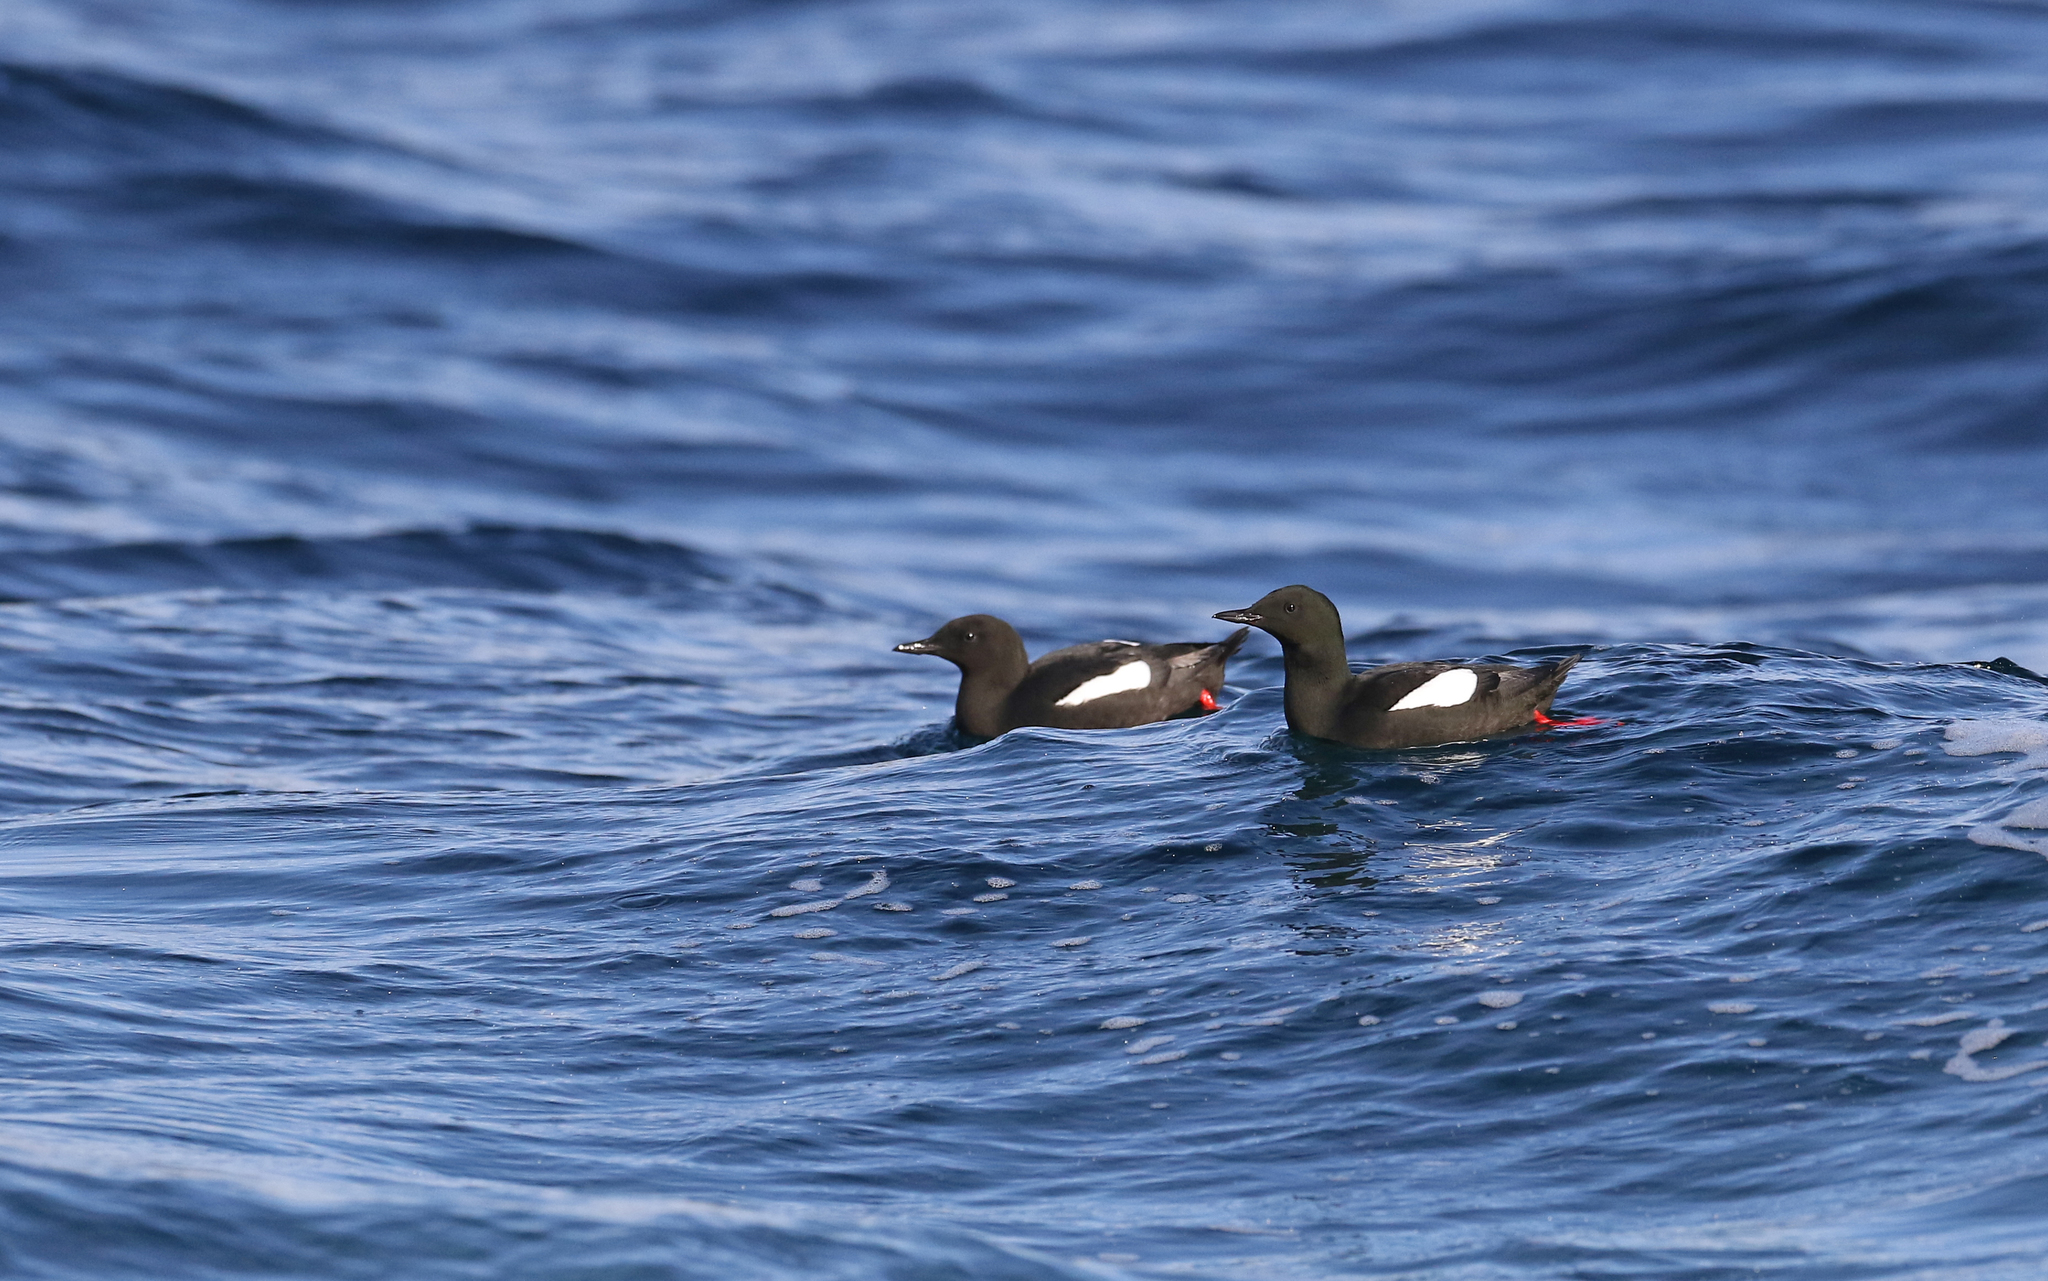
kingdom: Animalia
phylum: Chordata
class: Aves
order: Charadriiformes
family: Alcidae
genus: Cepphus
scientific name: Cepphus grylle
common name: Black guillemot
